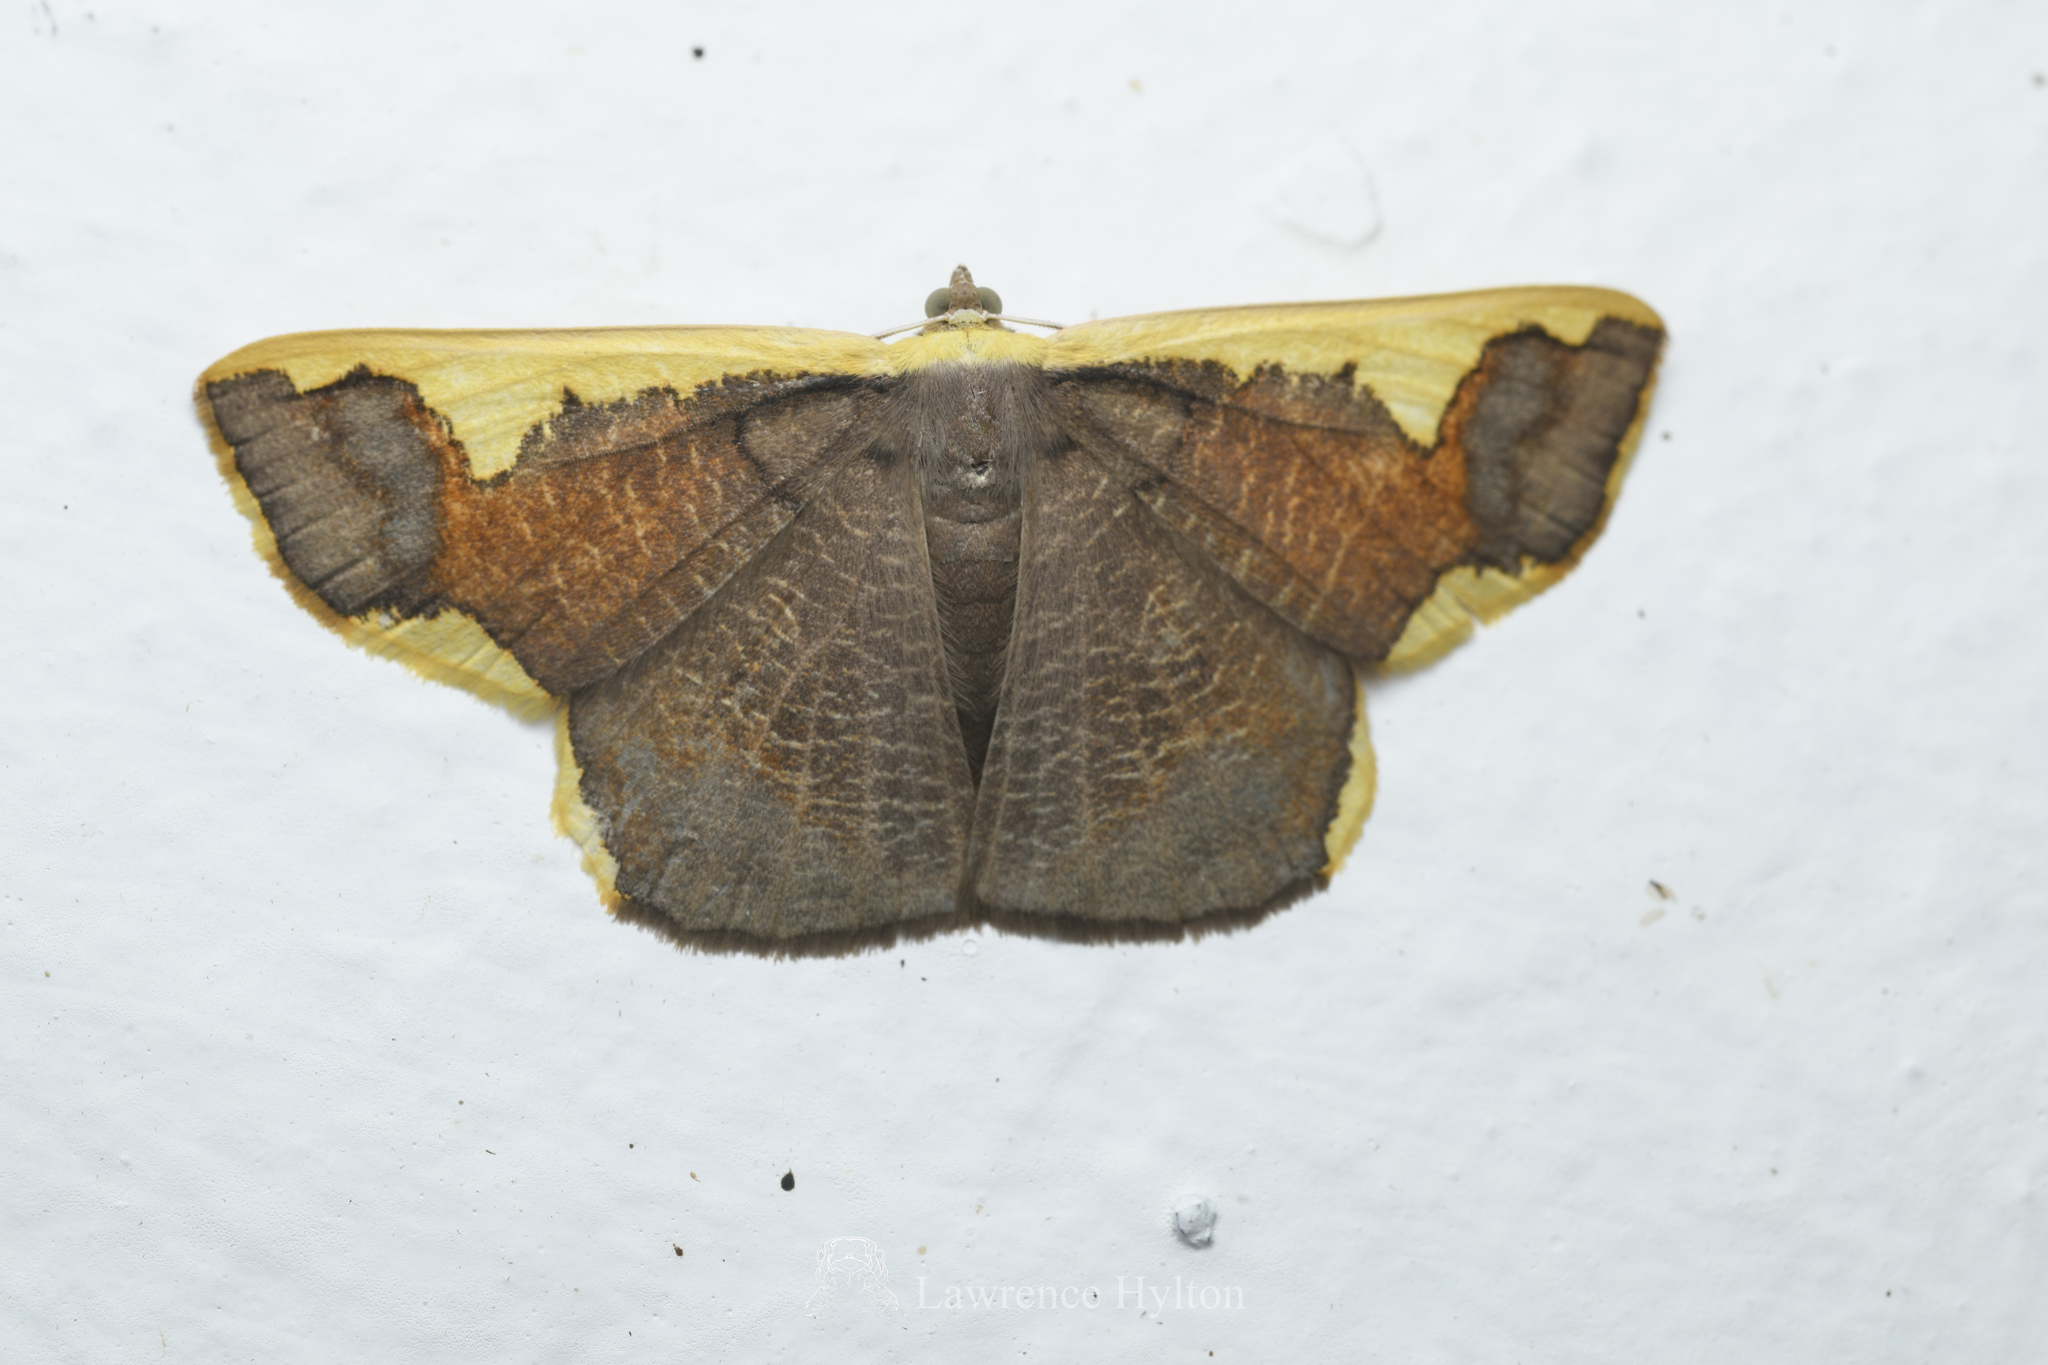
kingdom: Animalia
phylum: Arthropoda
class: Insecta
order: Lepidoptera
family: Geometridae
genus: Plutodes
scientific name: Plutodes costatus
